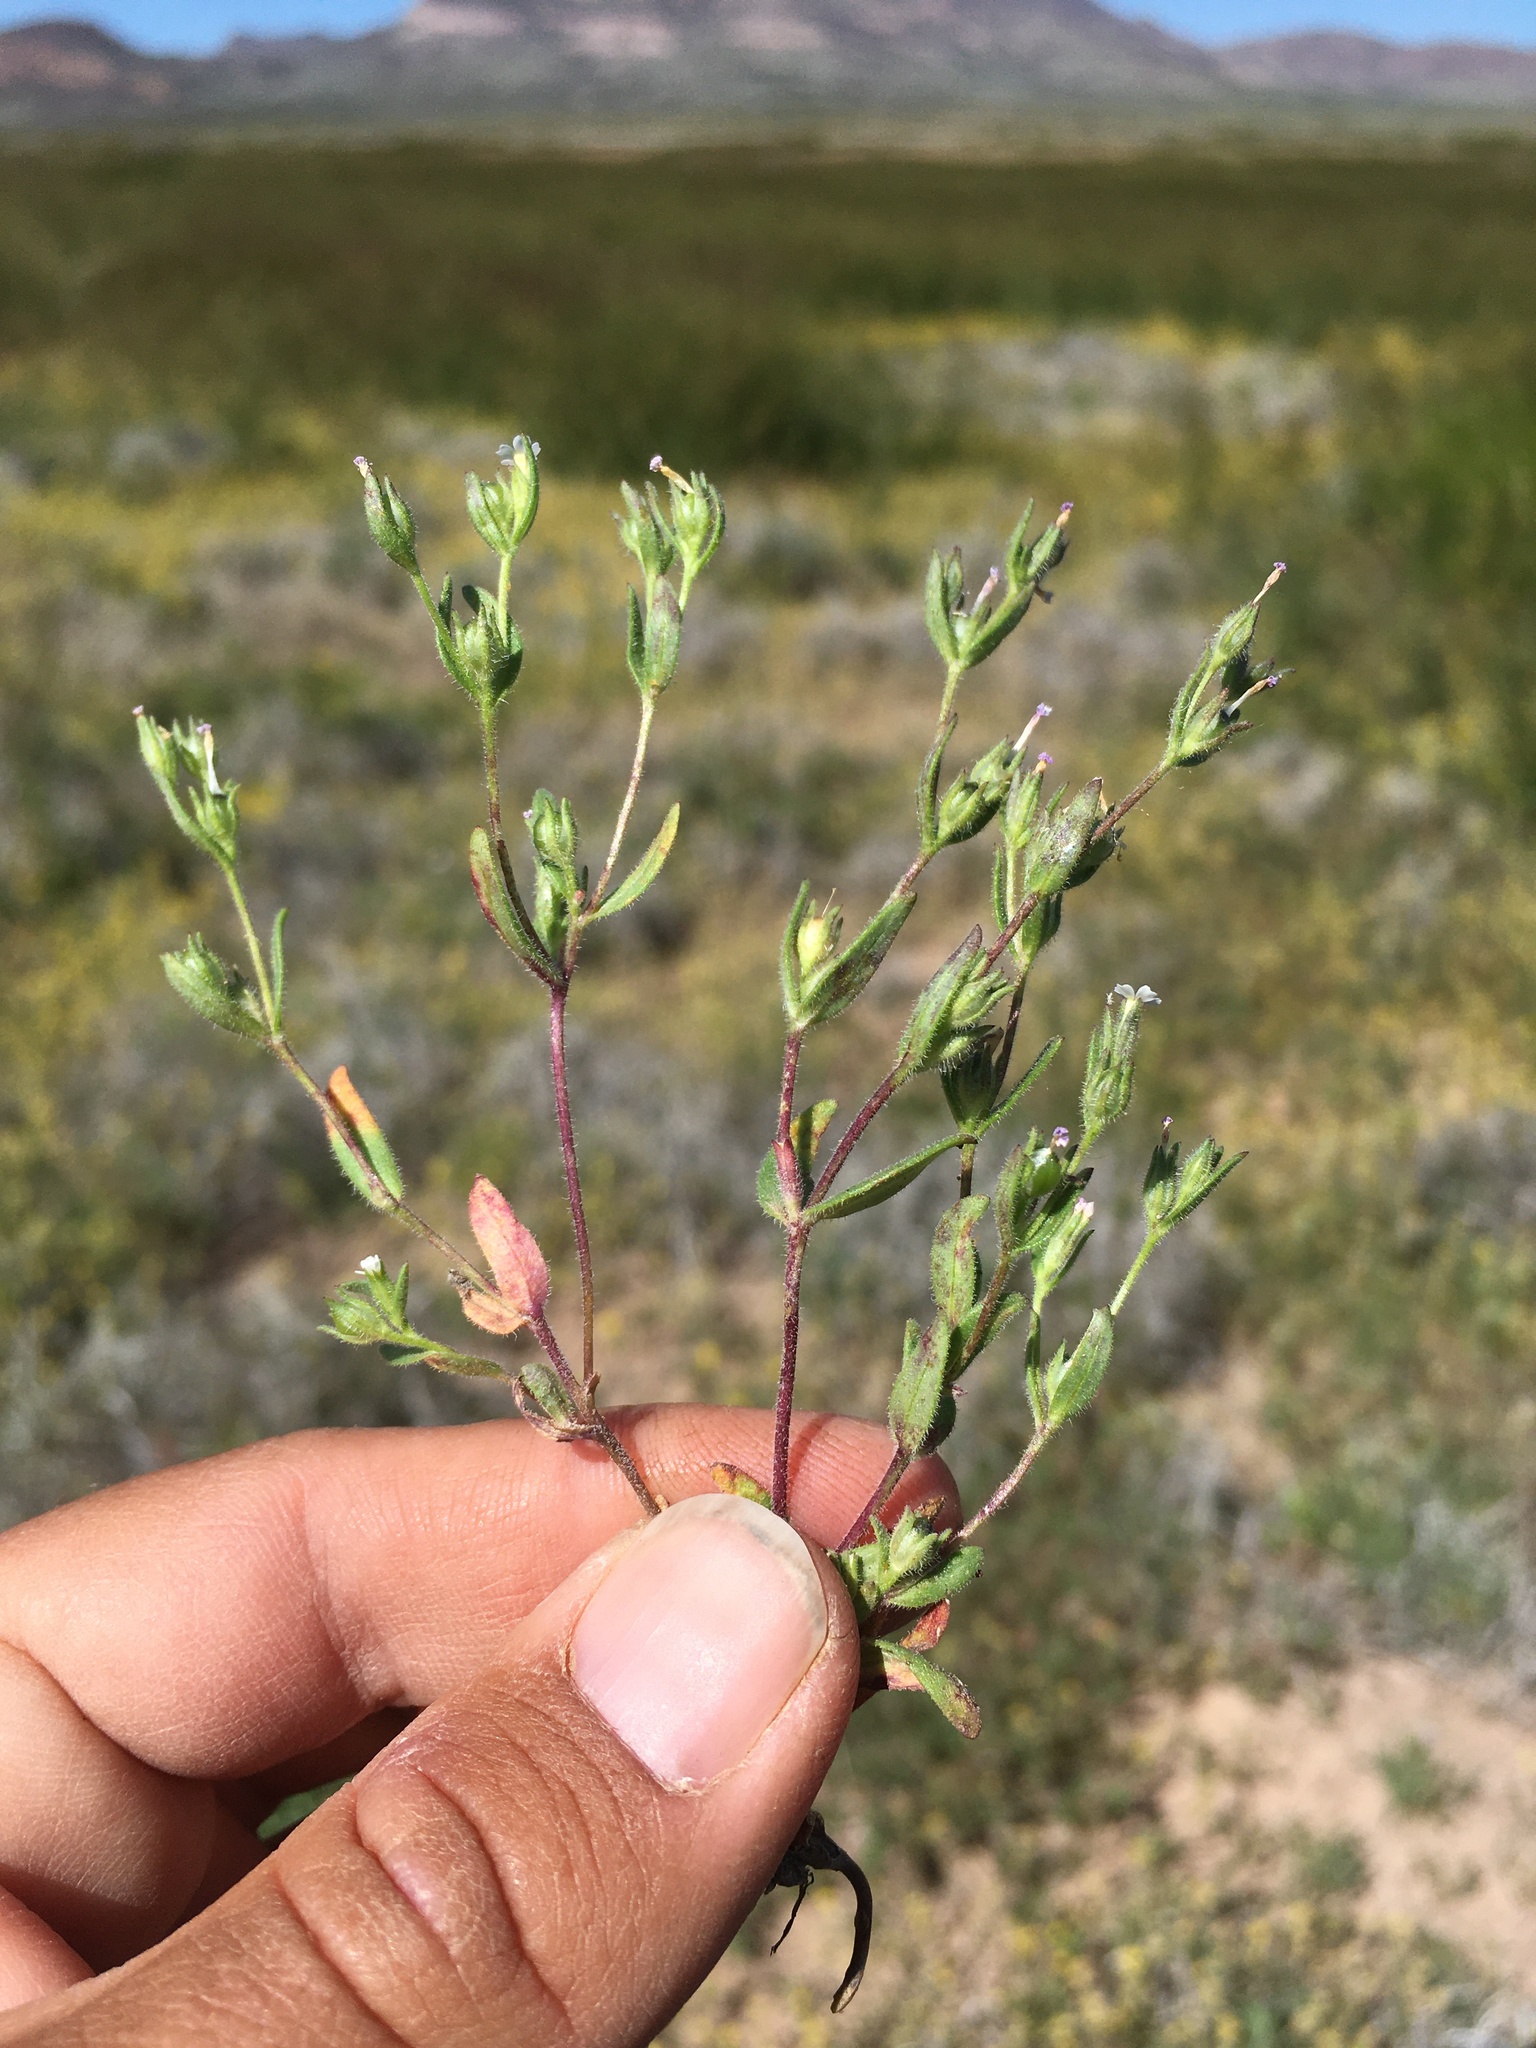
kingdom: Plantae
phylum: Tracheophyta
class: Magnoliopsida
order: Ericales
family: Polemoniaceae
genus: Phlox
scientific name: Phlox gracilis
